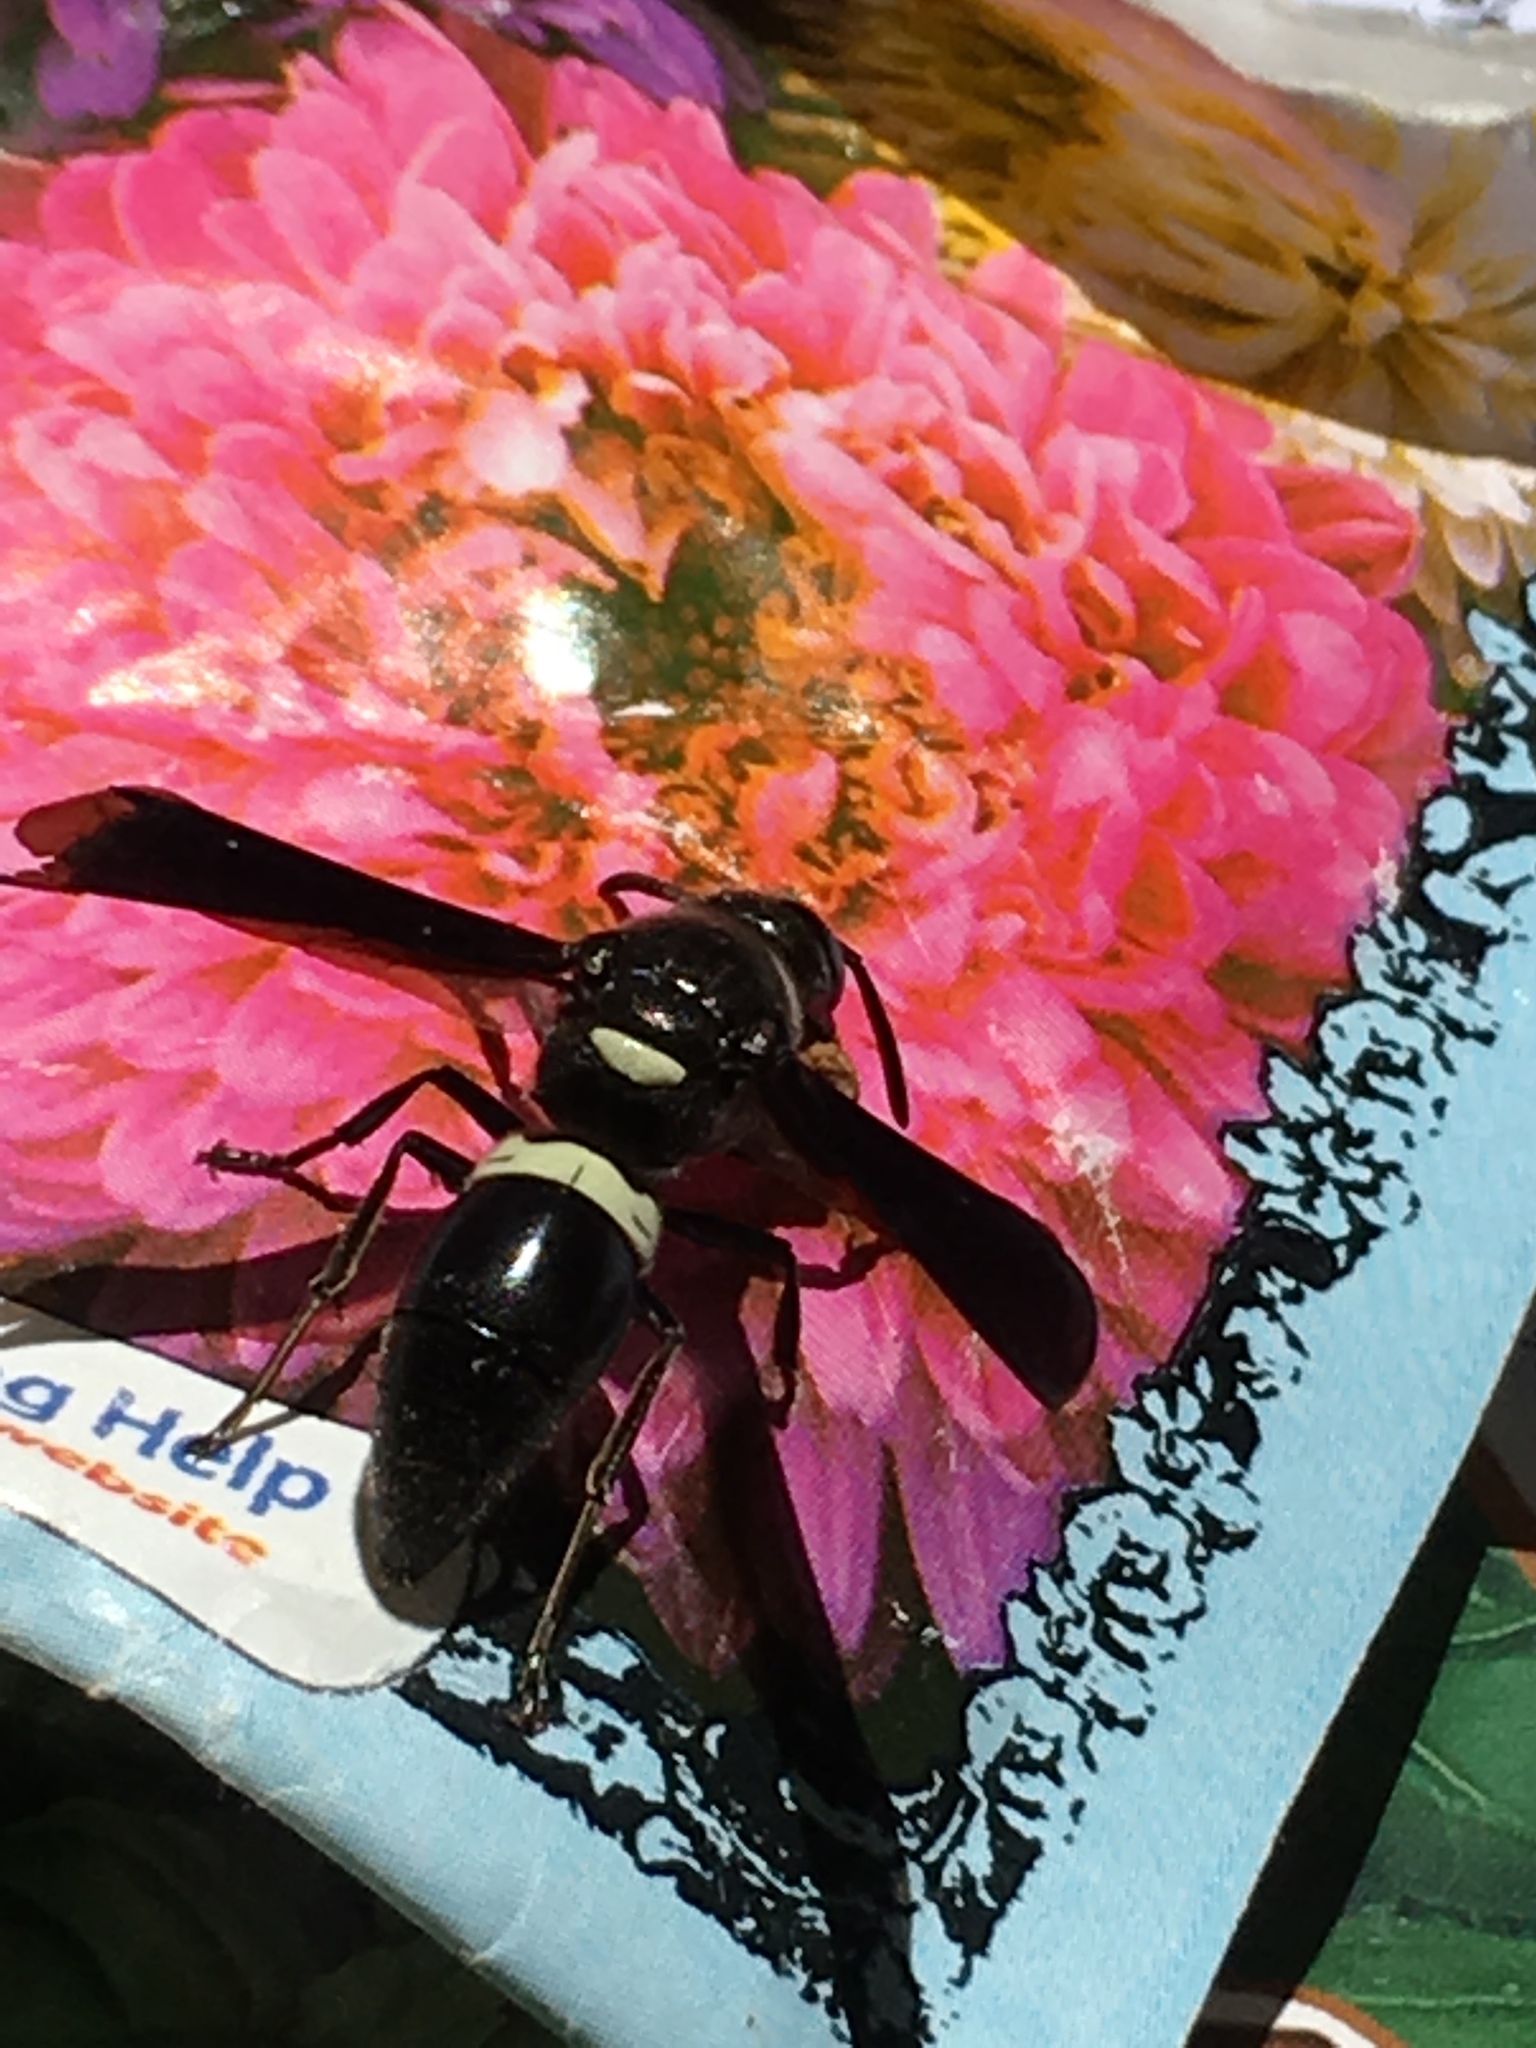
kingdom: Animalia
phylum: Arthropoda
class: Insecta
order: Hymenoptera
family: Eumenidae
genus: Monobia
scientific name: Monobia quadridens
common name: Four-toothed mason wasp
